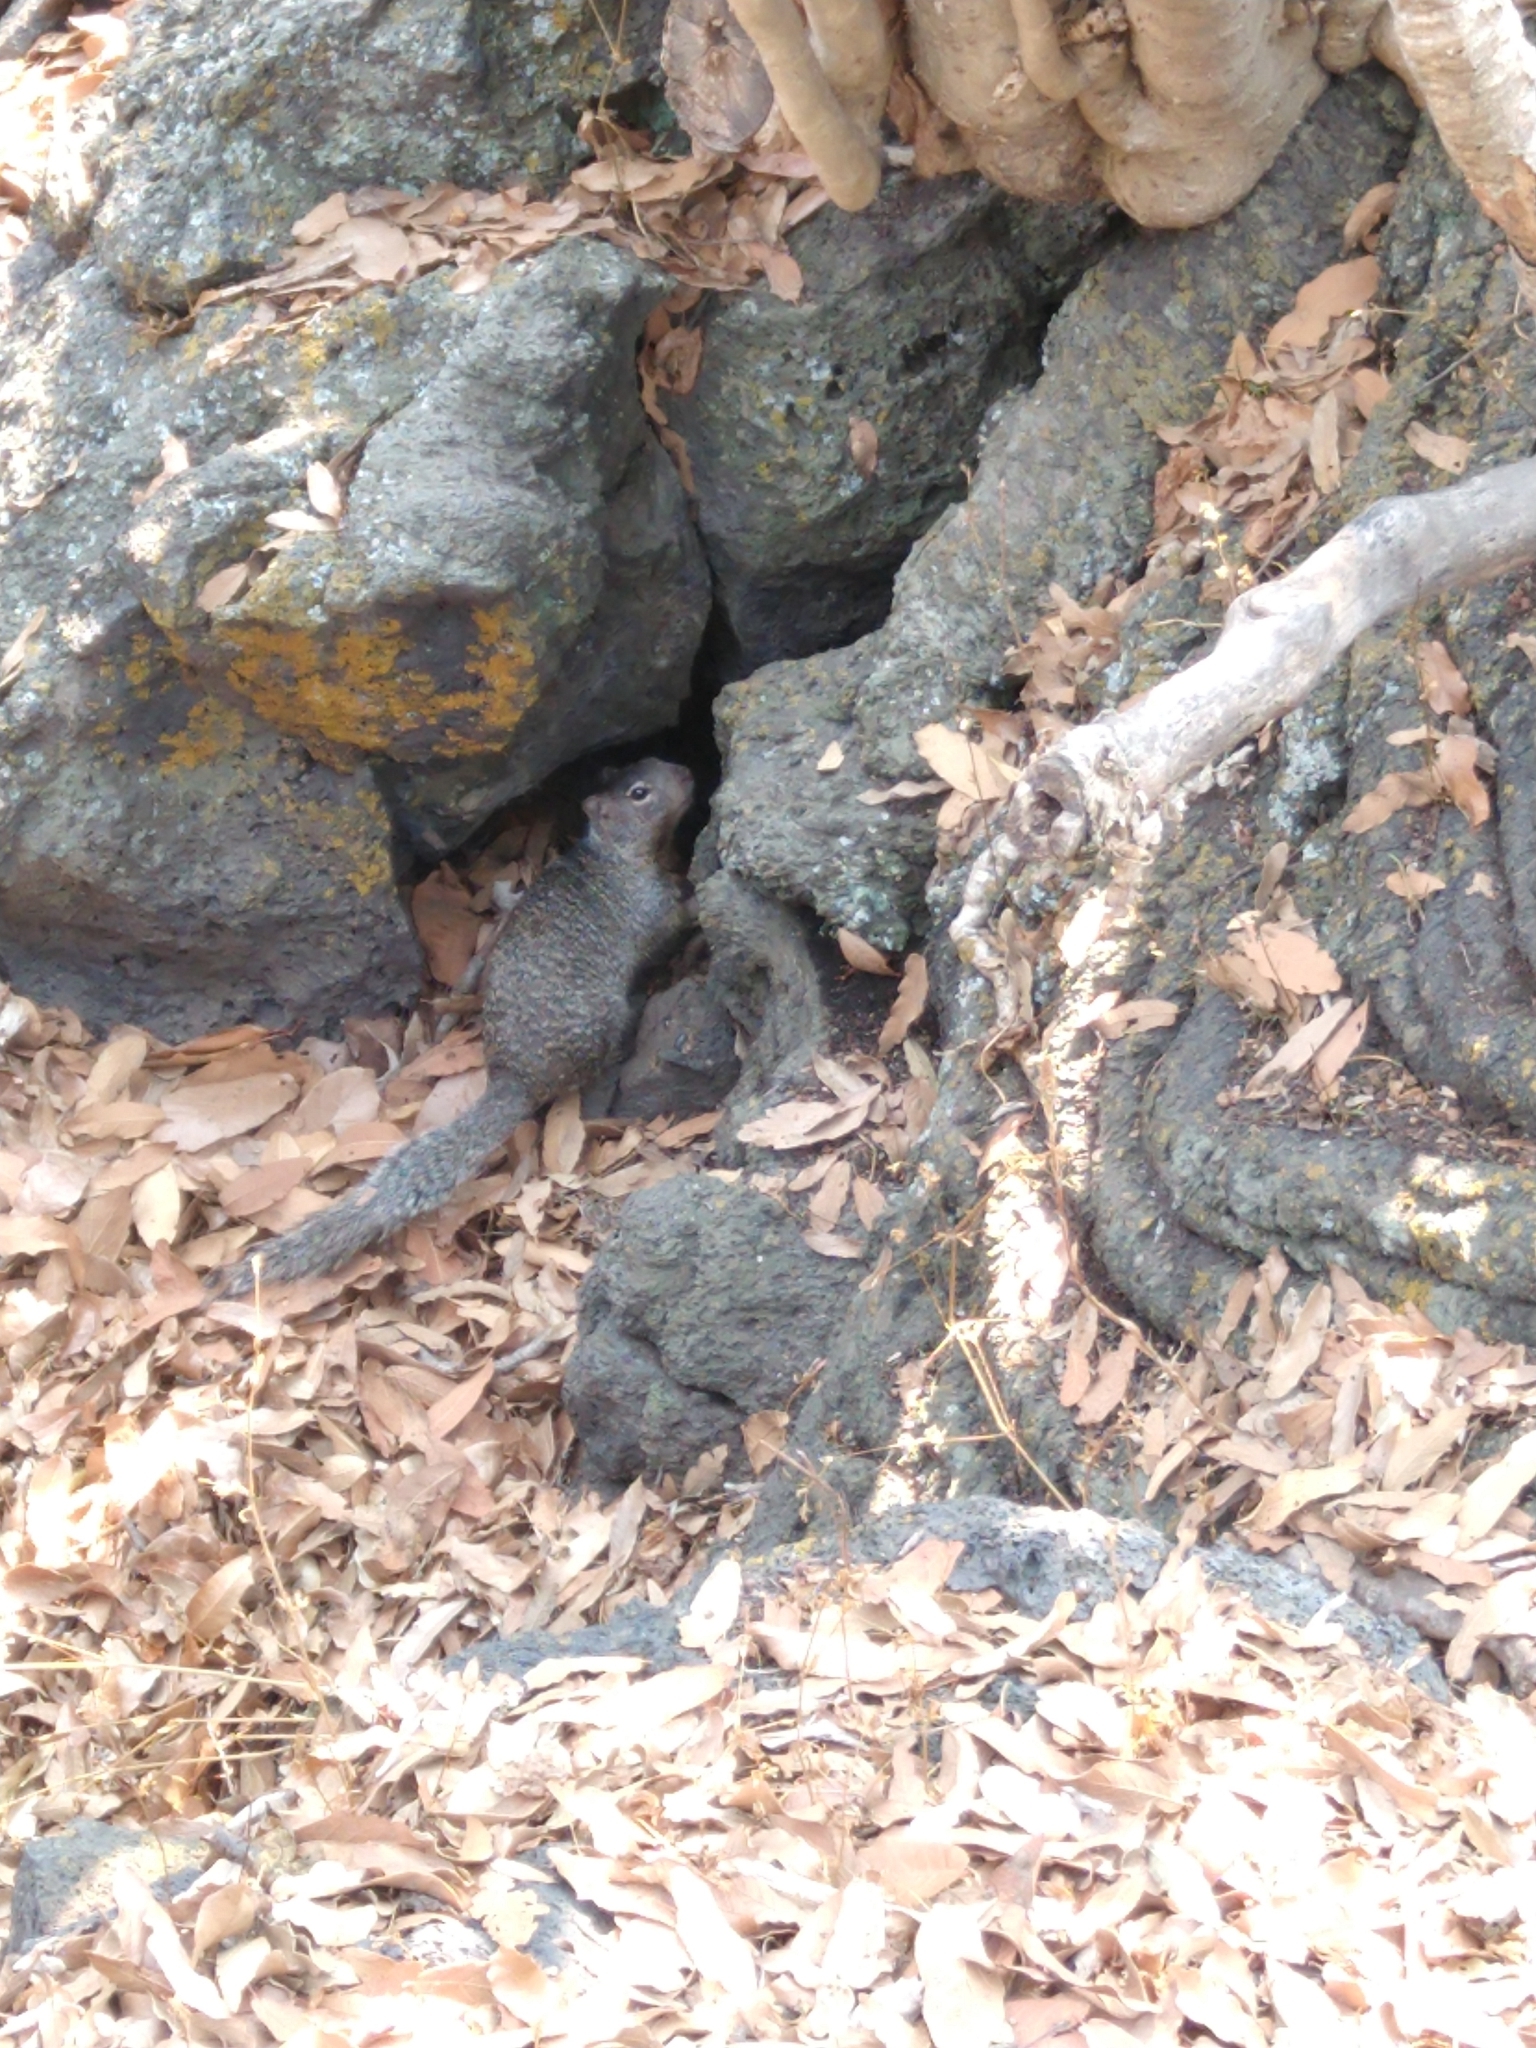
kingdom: Animalia
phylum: Chordata
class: Mammalia
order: Rodentia
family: Sciuridae
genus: Otospermophilus
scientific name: Otospermophilus variegatus
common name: Rock squirrel
